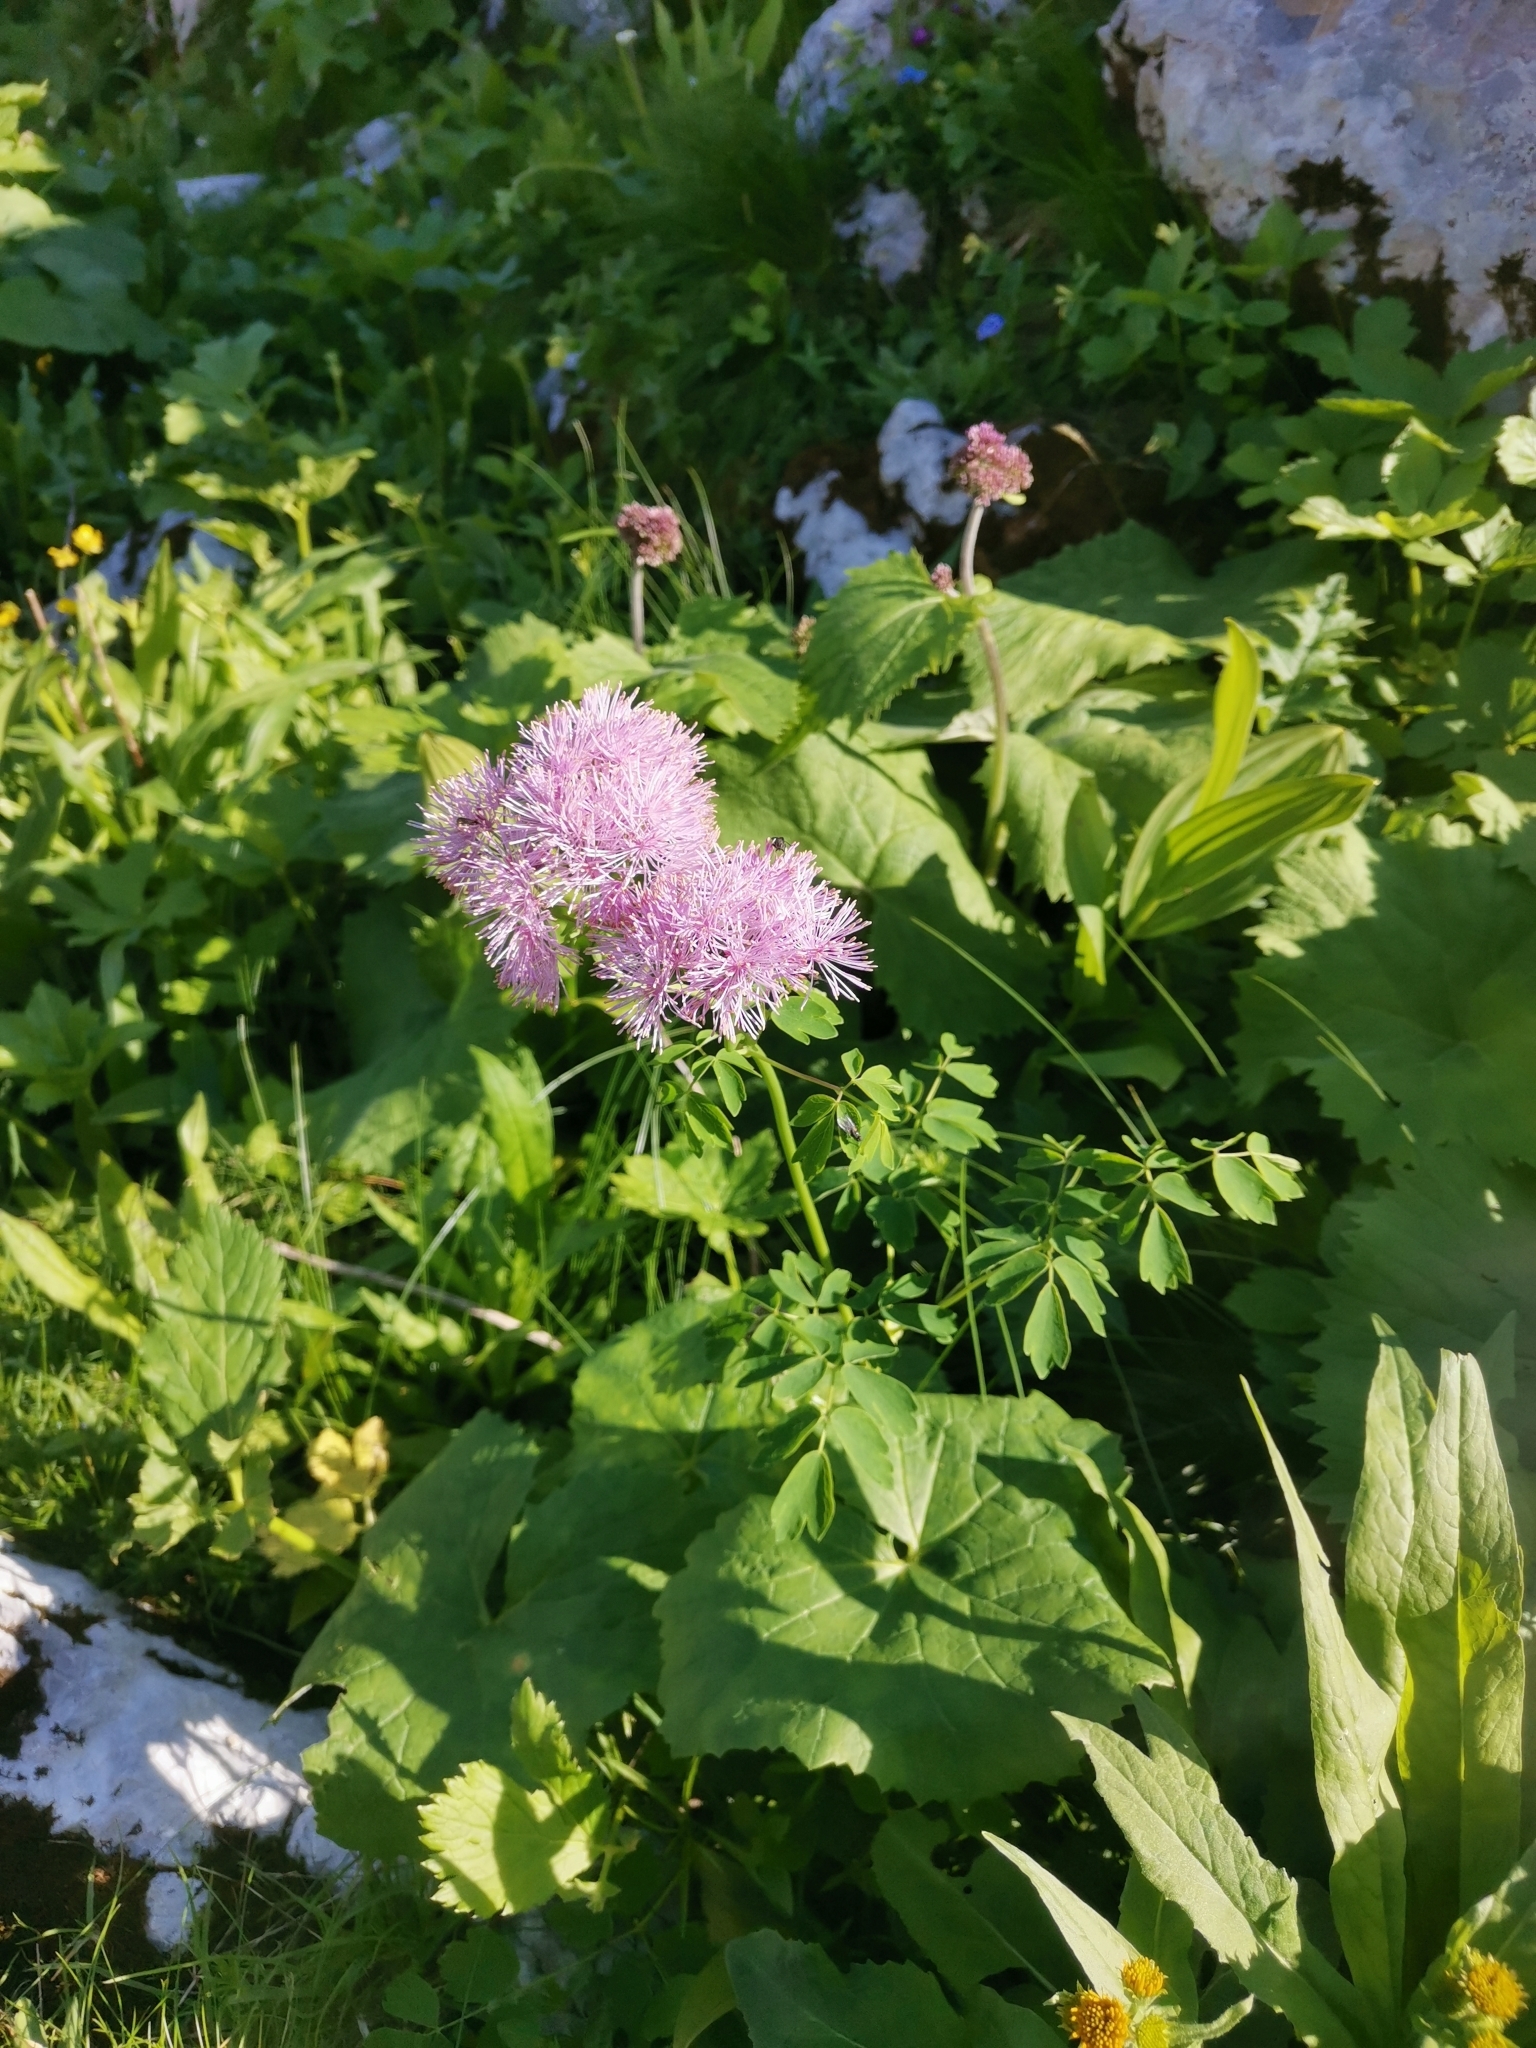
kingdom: Plantae
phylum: Tracheophyta
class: Magnoliopsida
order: Ranunculales
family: Ranunculaceae
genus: Thalictrum
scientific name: Thalictrum aquilegiifolium
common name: French meadow-rue
